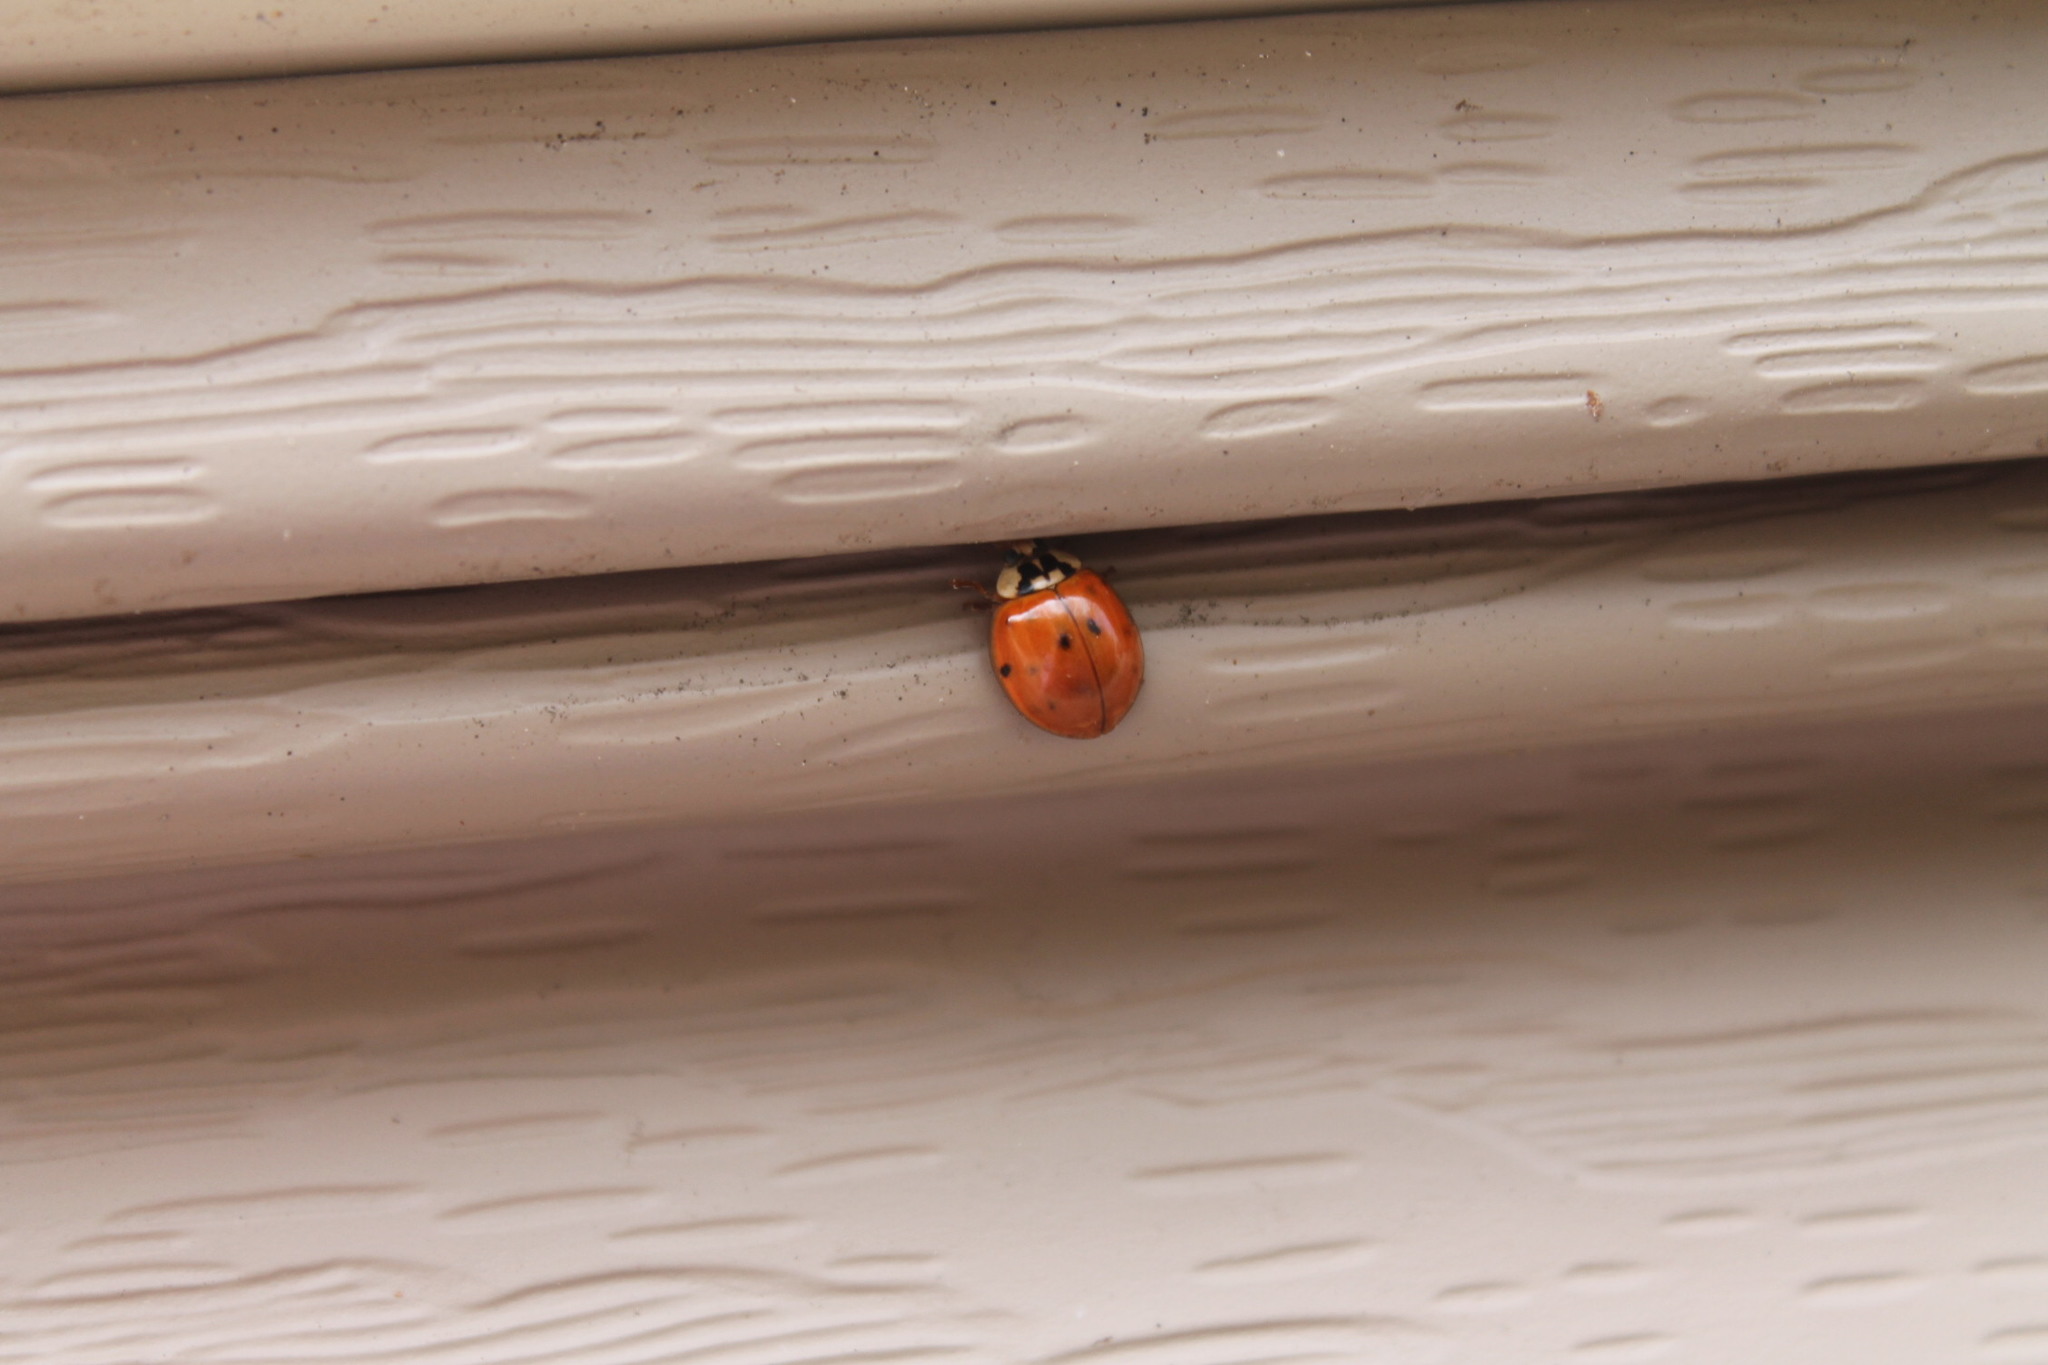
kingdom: Animalia
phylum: Arthropoda
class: Insecta
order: Coleoptera
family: Coccinellidae
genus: Harmonia
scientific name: Harmonia axyridis
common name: Harlequin ladybird
